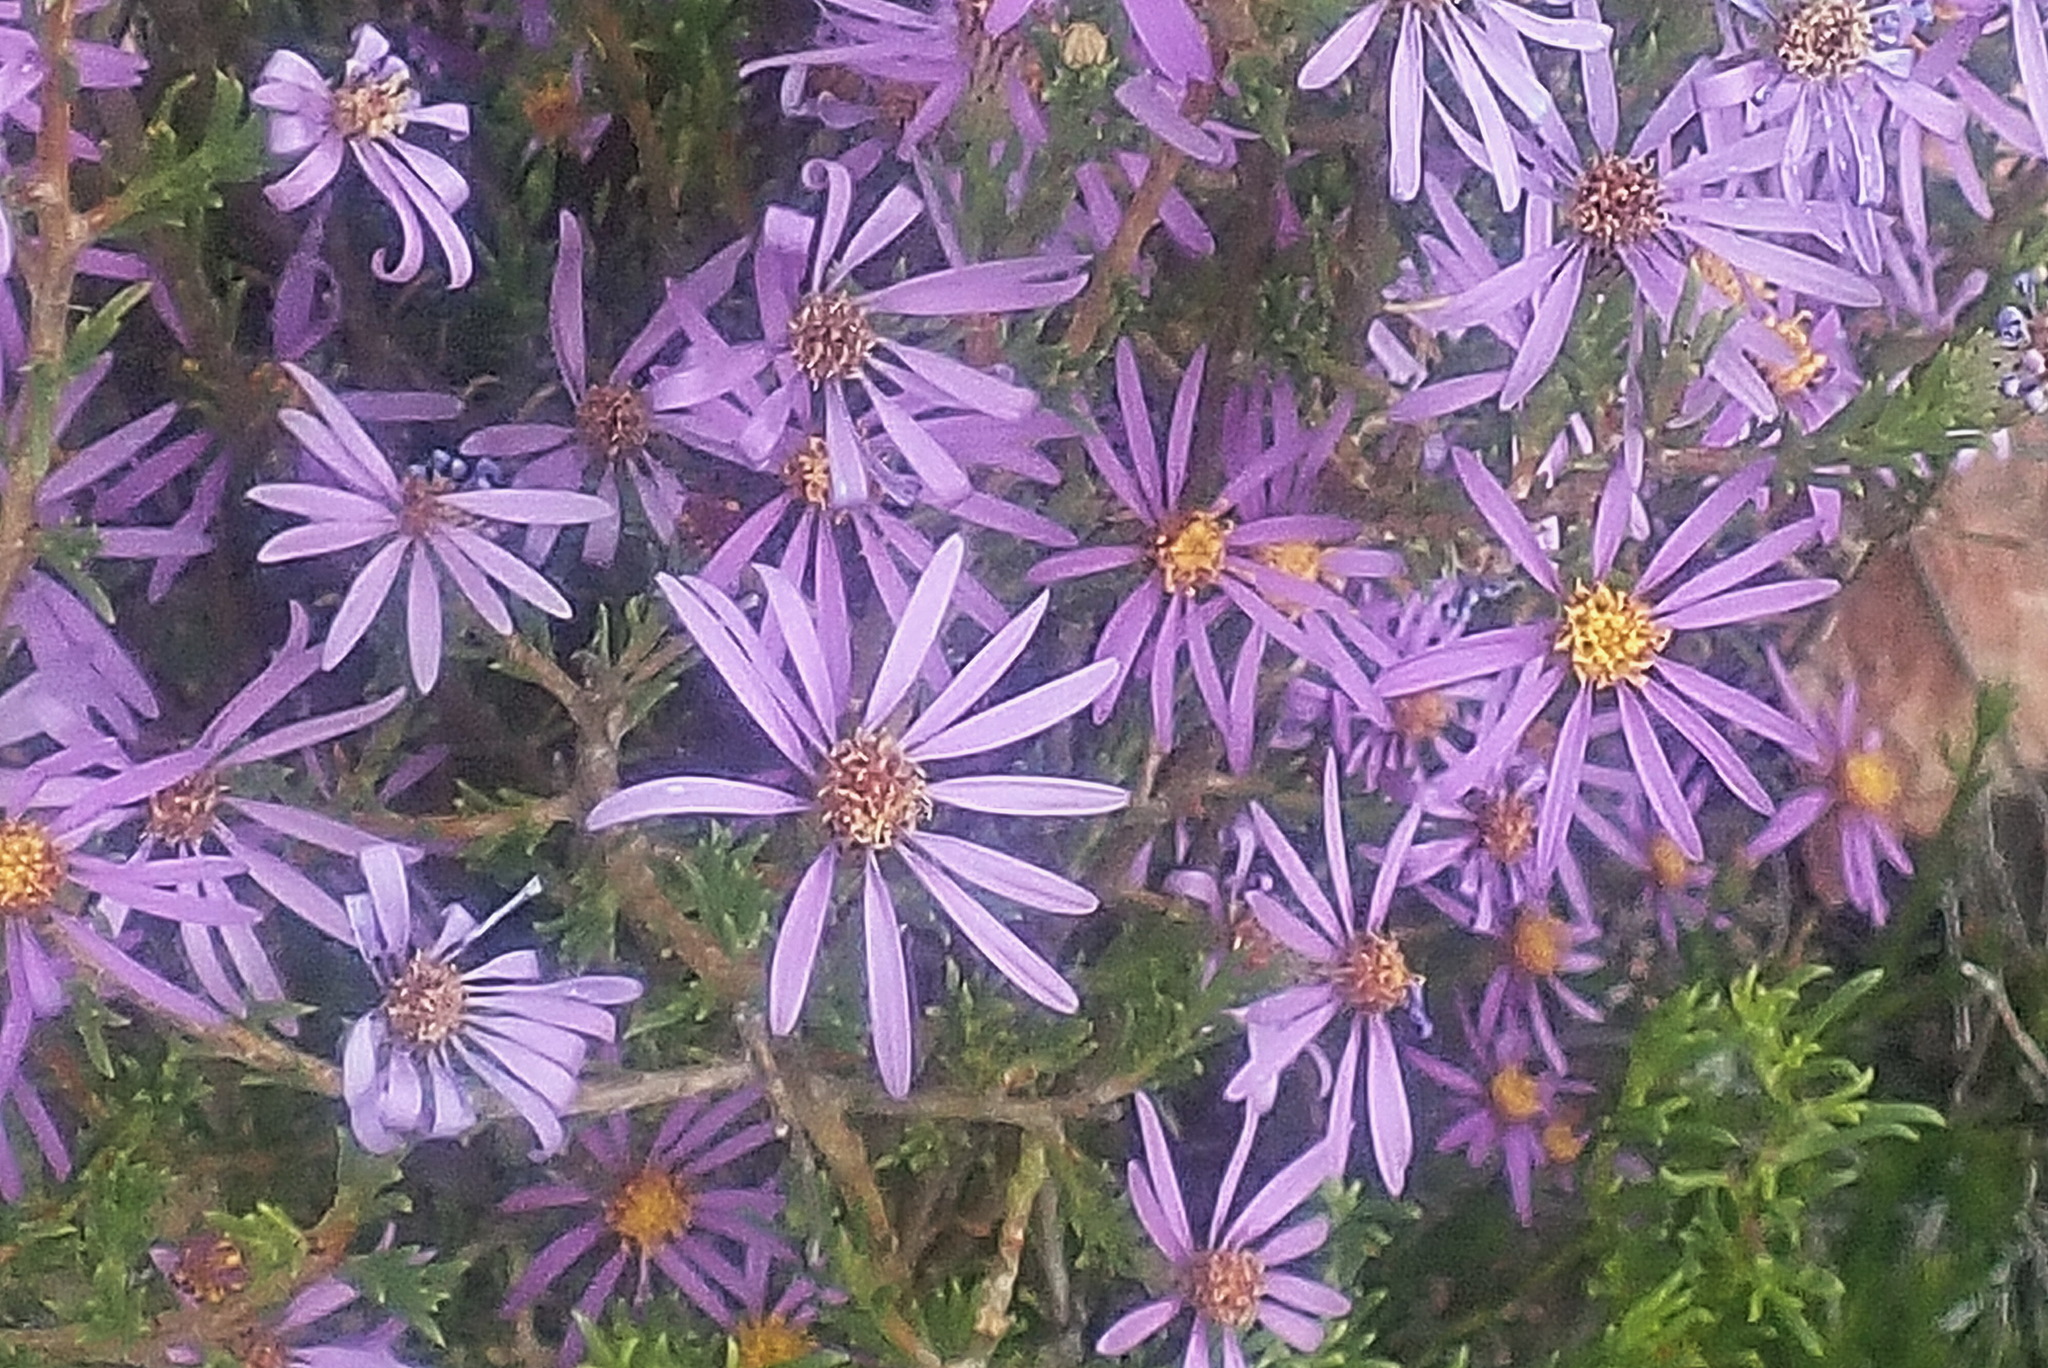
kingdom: Plantae
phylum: Tracheophyta
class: Magnoliopsida
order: Asterales
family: Asteraceae
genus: Felicia
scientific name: Felicia filifolia
